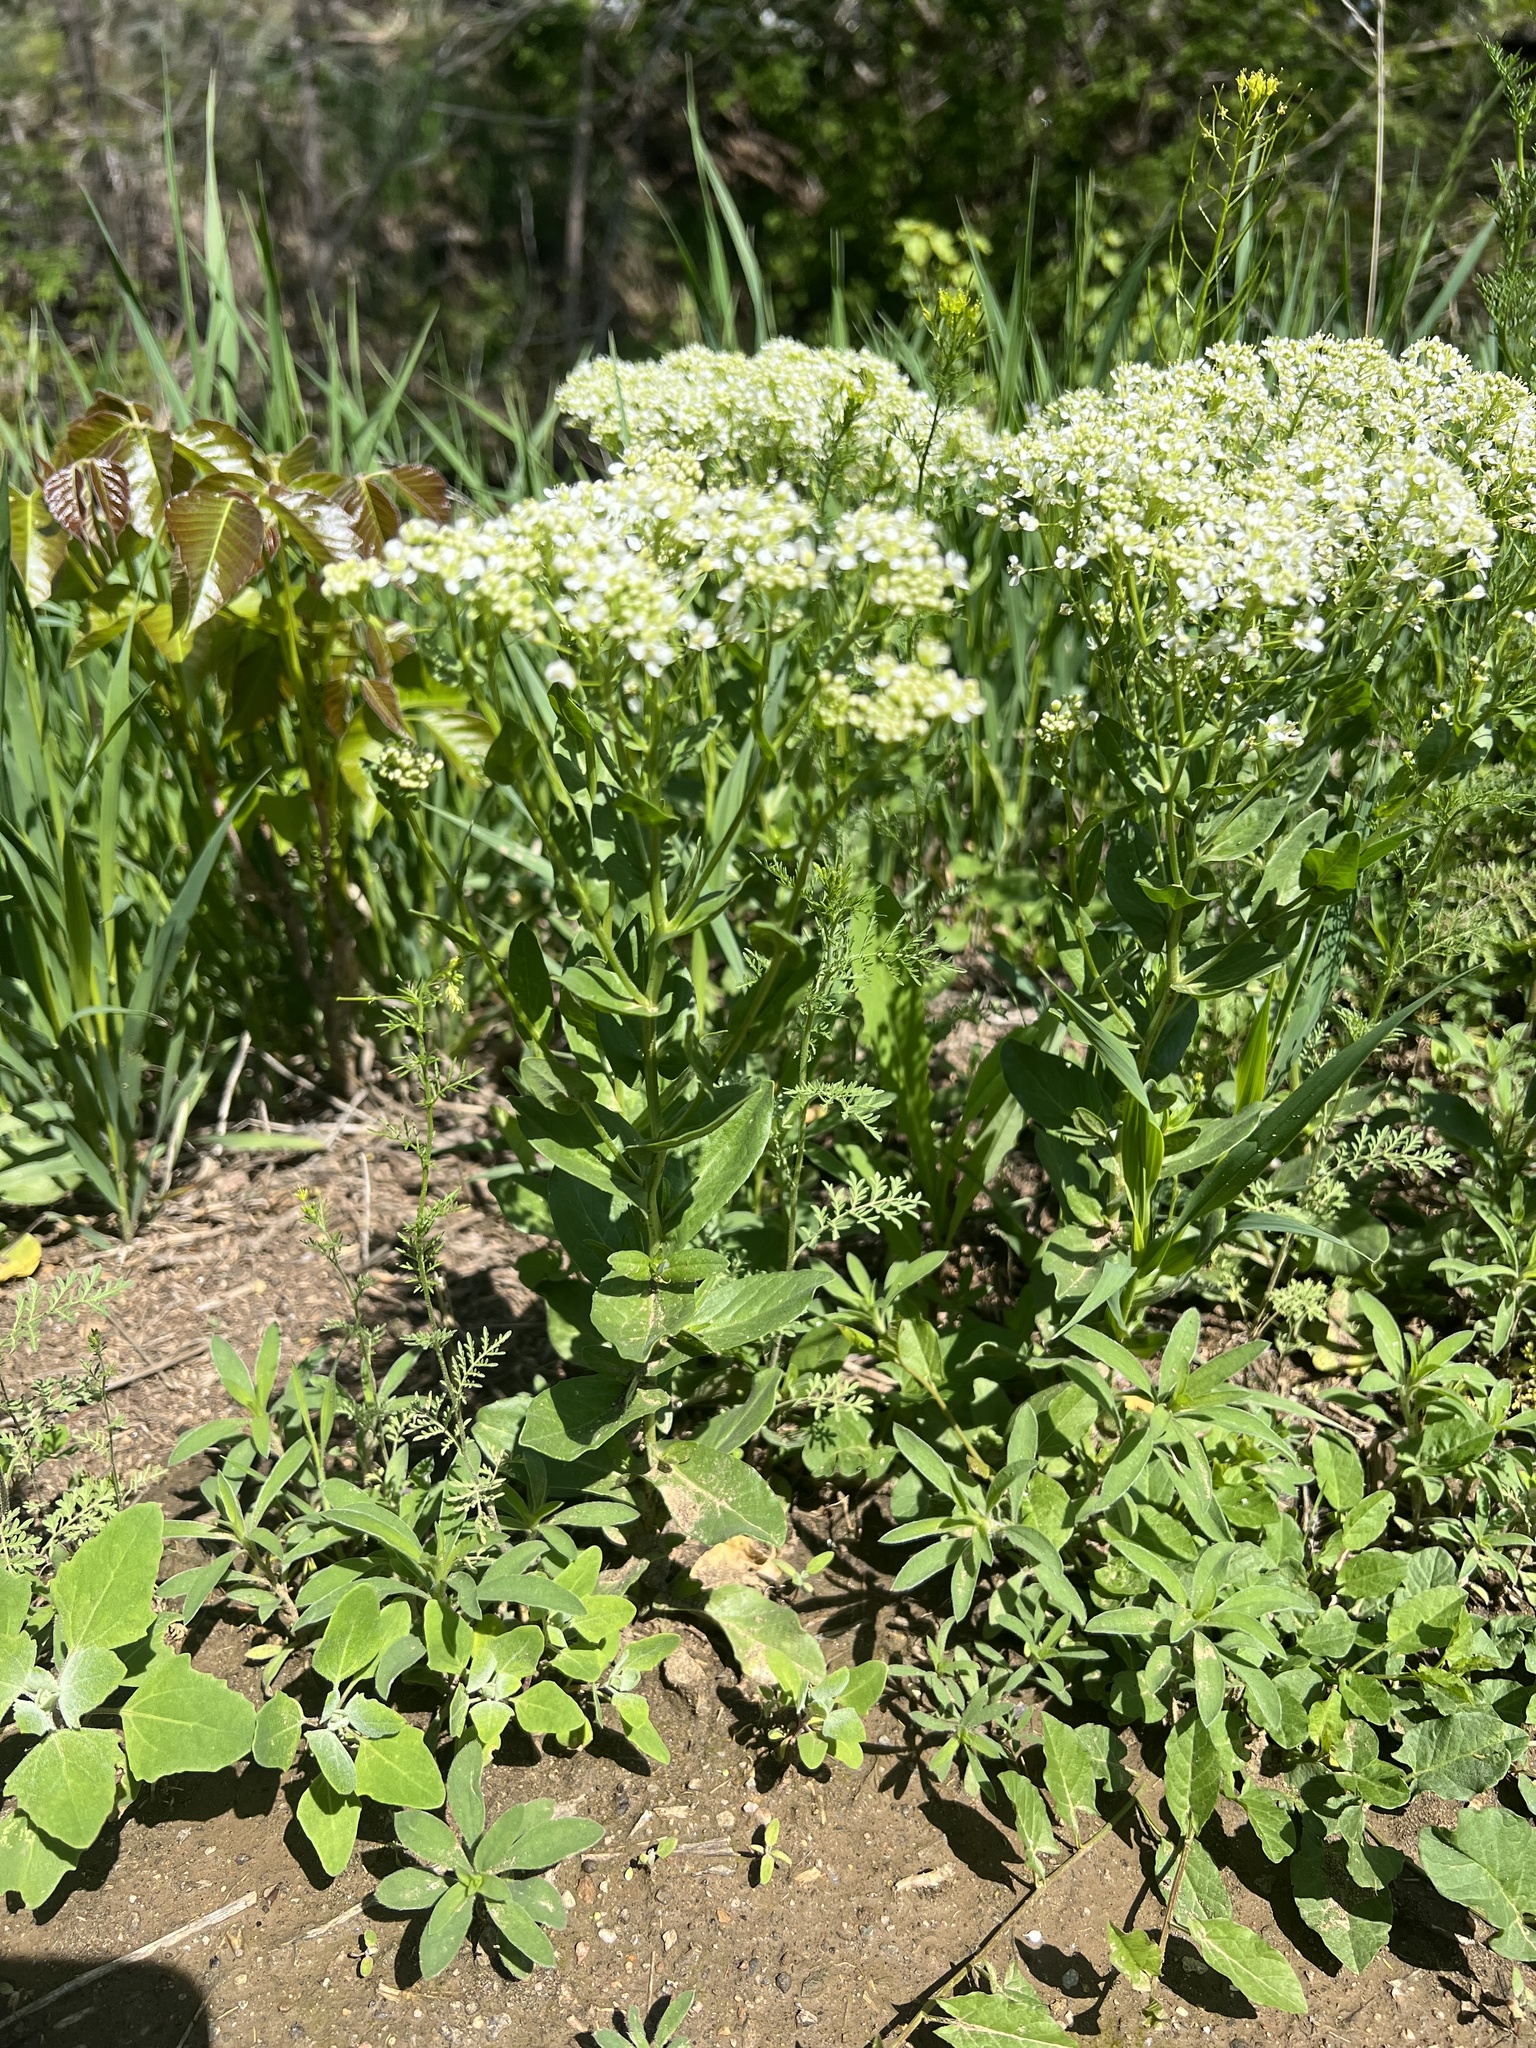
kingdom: Plantae
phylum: Tracheophyta
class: Magnoliopsida
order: Brassicales
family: Brassicaceae
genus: Lepidium
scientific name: Lepidium draba
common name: Hoary cress
